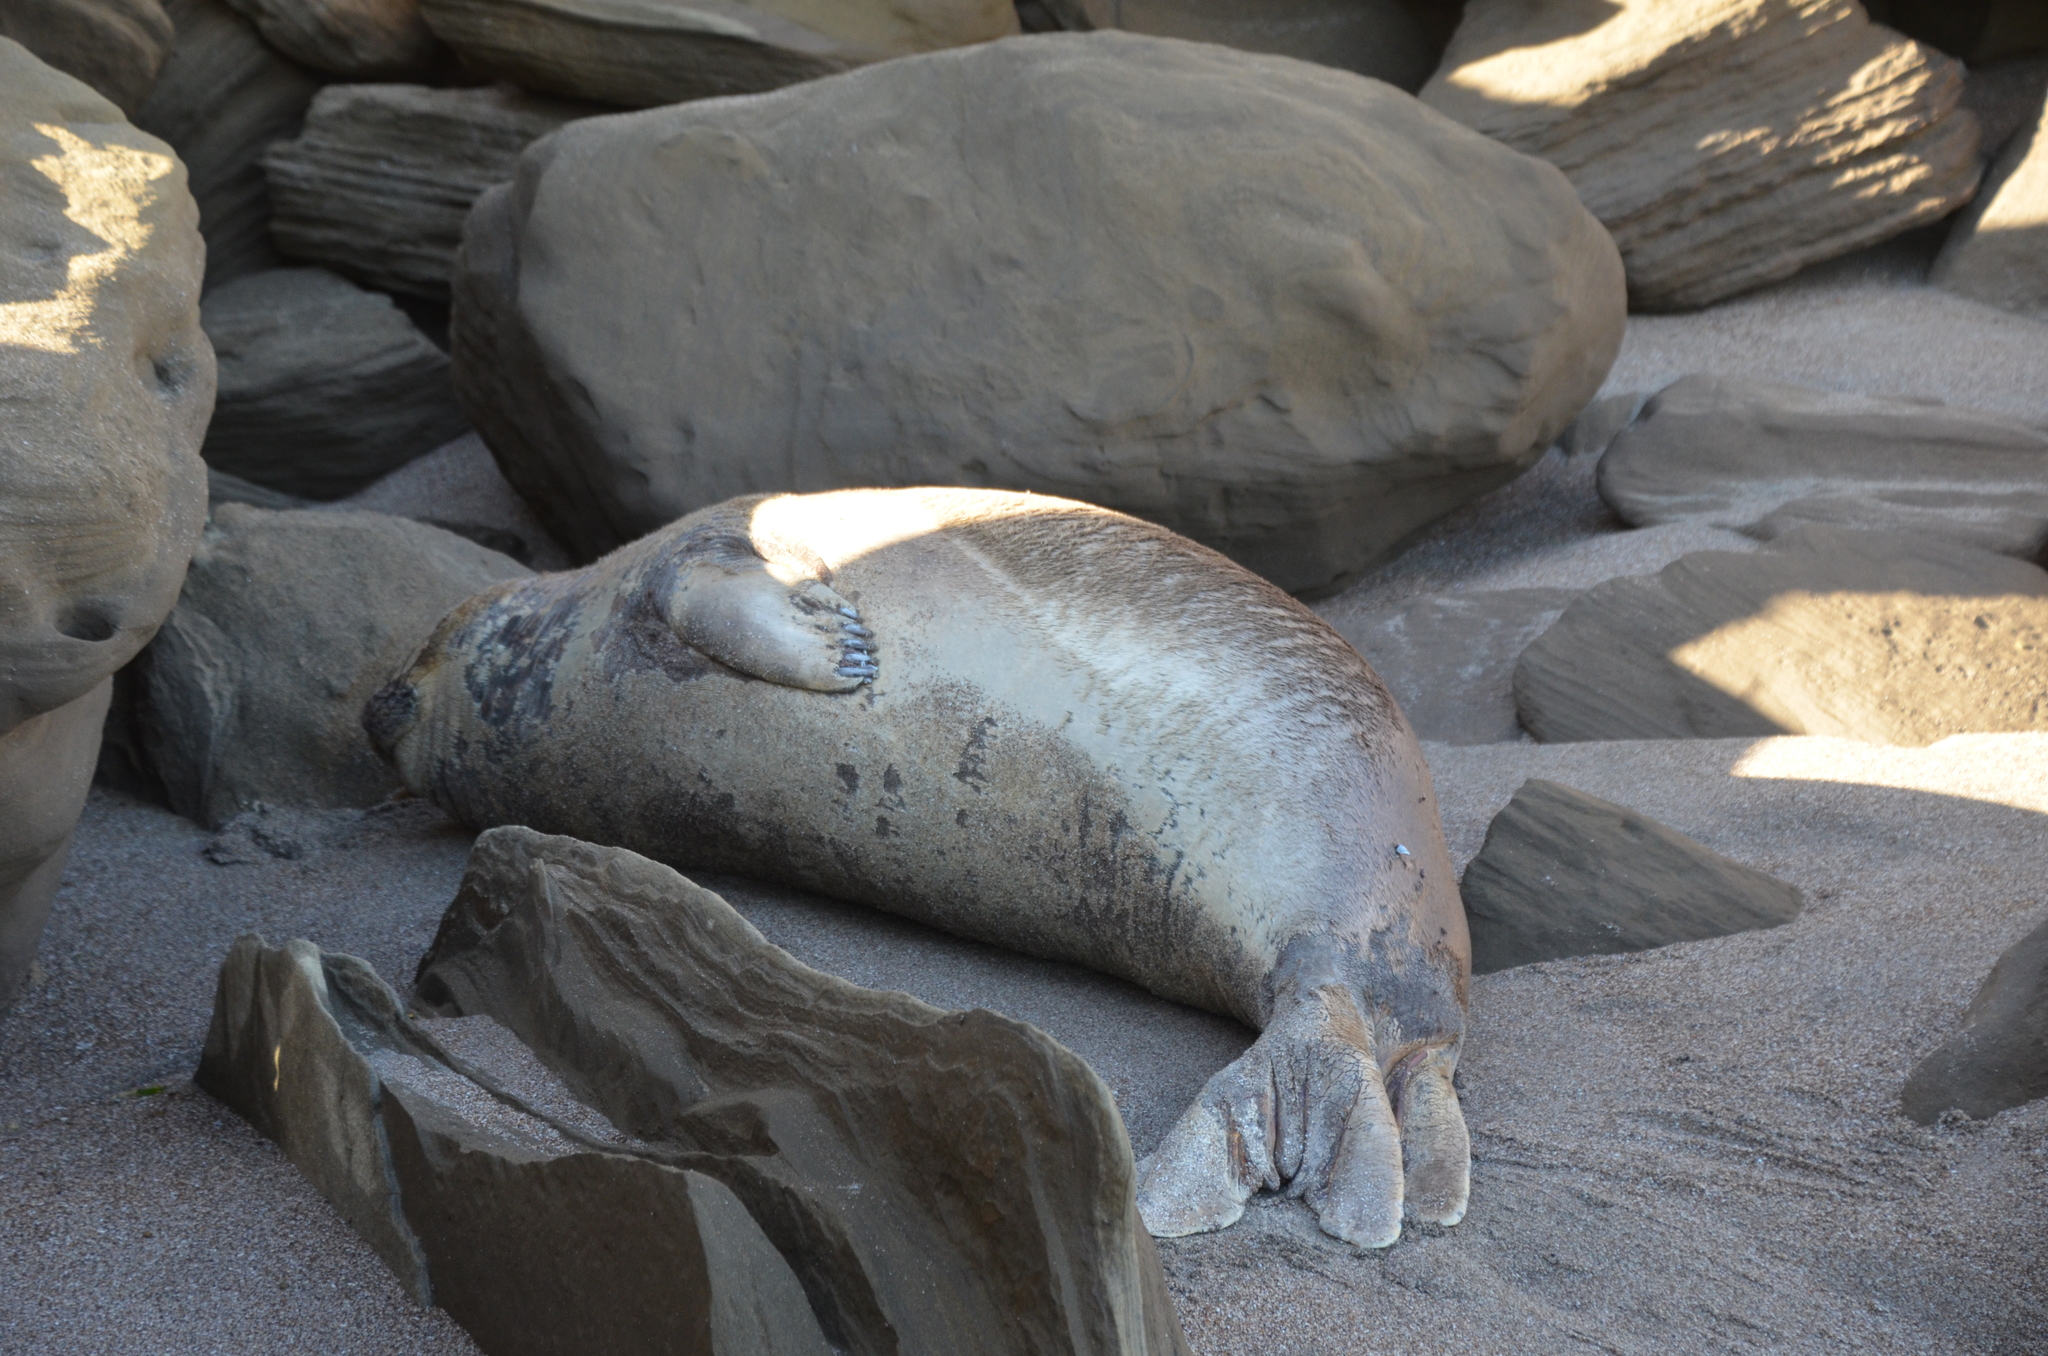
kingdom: Animalia
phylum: Chordata
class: Mammalia
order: Carnivora
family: Phocidae
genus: Mirounga
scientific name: Mirounga leonina
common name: Southern elephant seal
